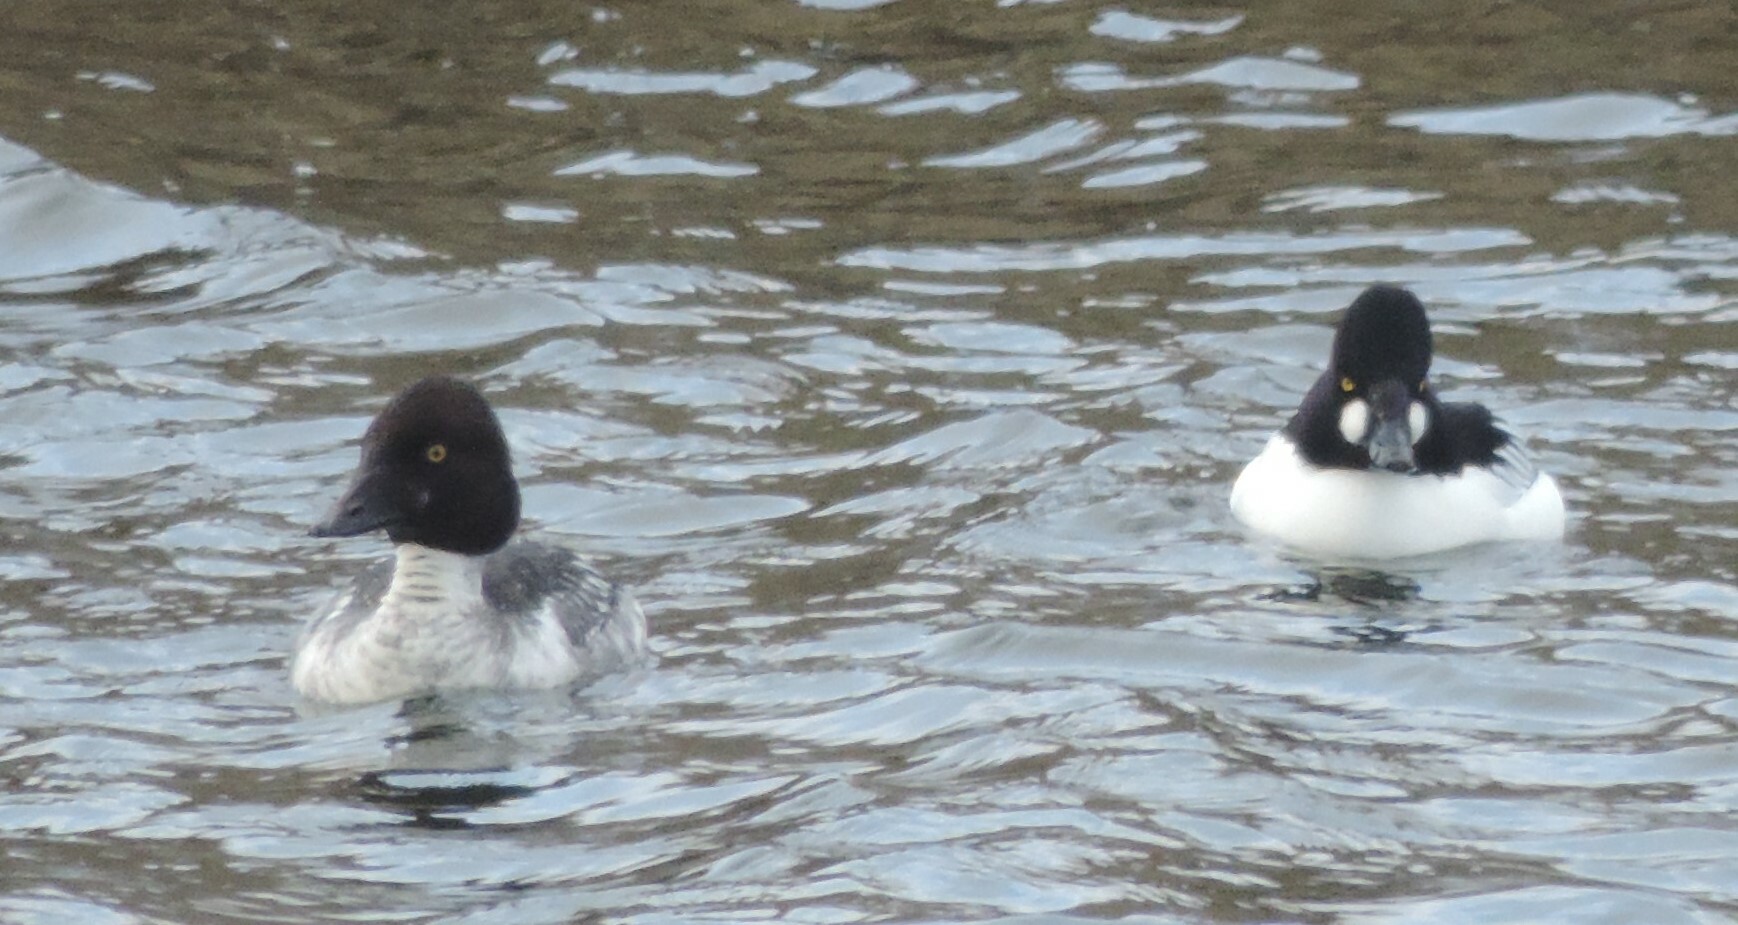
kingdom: Animalia
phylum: Chordata
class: Aves
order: Anseriformes
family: Anatidae
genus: Bucephala
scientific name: Bucephala clangula
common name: Common goldeneye
